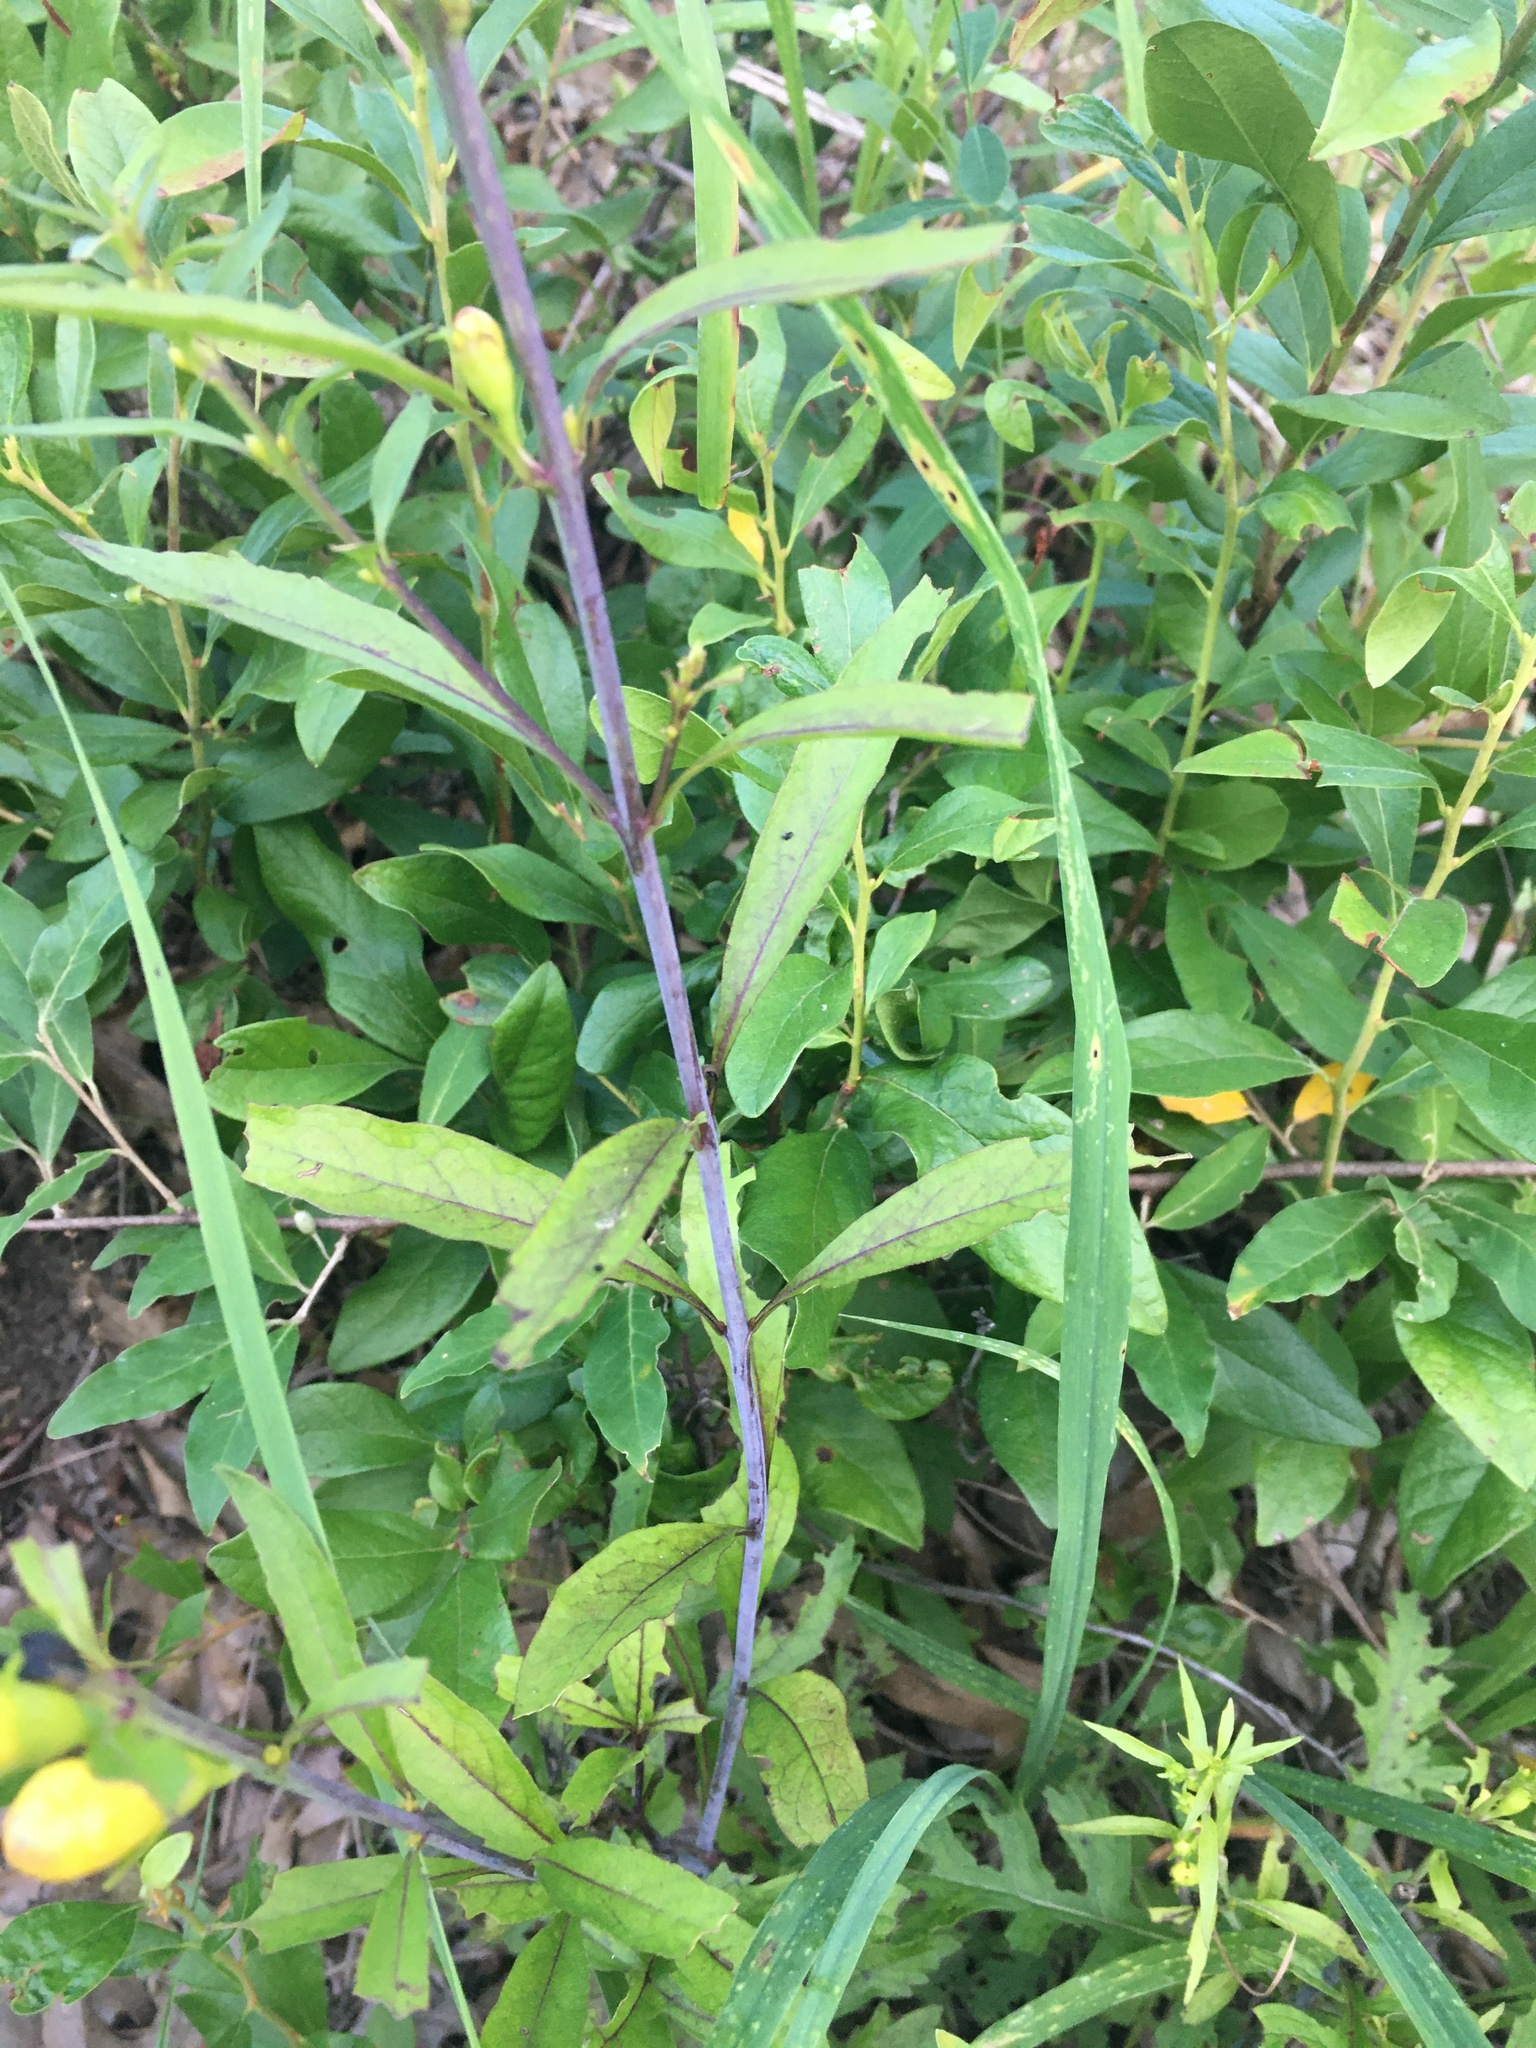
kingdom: Plantae
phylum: Tracheophyta
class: Magnoliopsida
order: Lamiales
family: Orobanchaceae
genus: Aureolaria
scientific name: Aureolaria flava
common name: Smooth false foxglove
